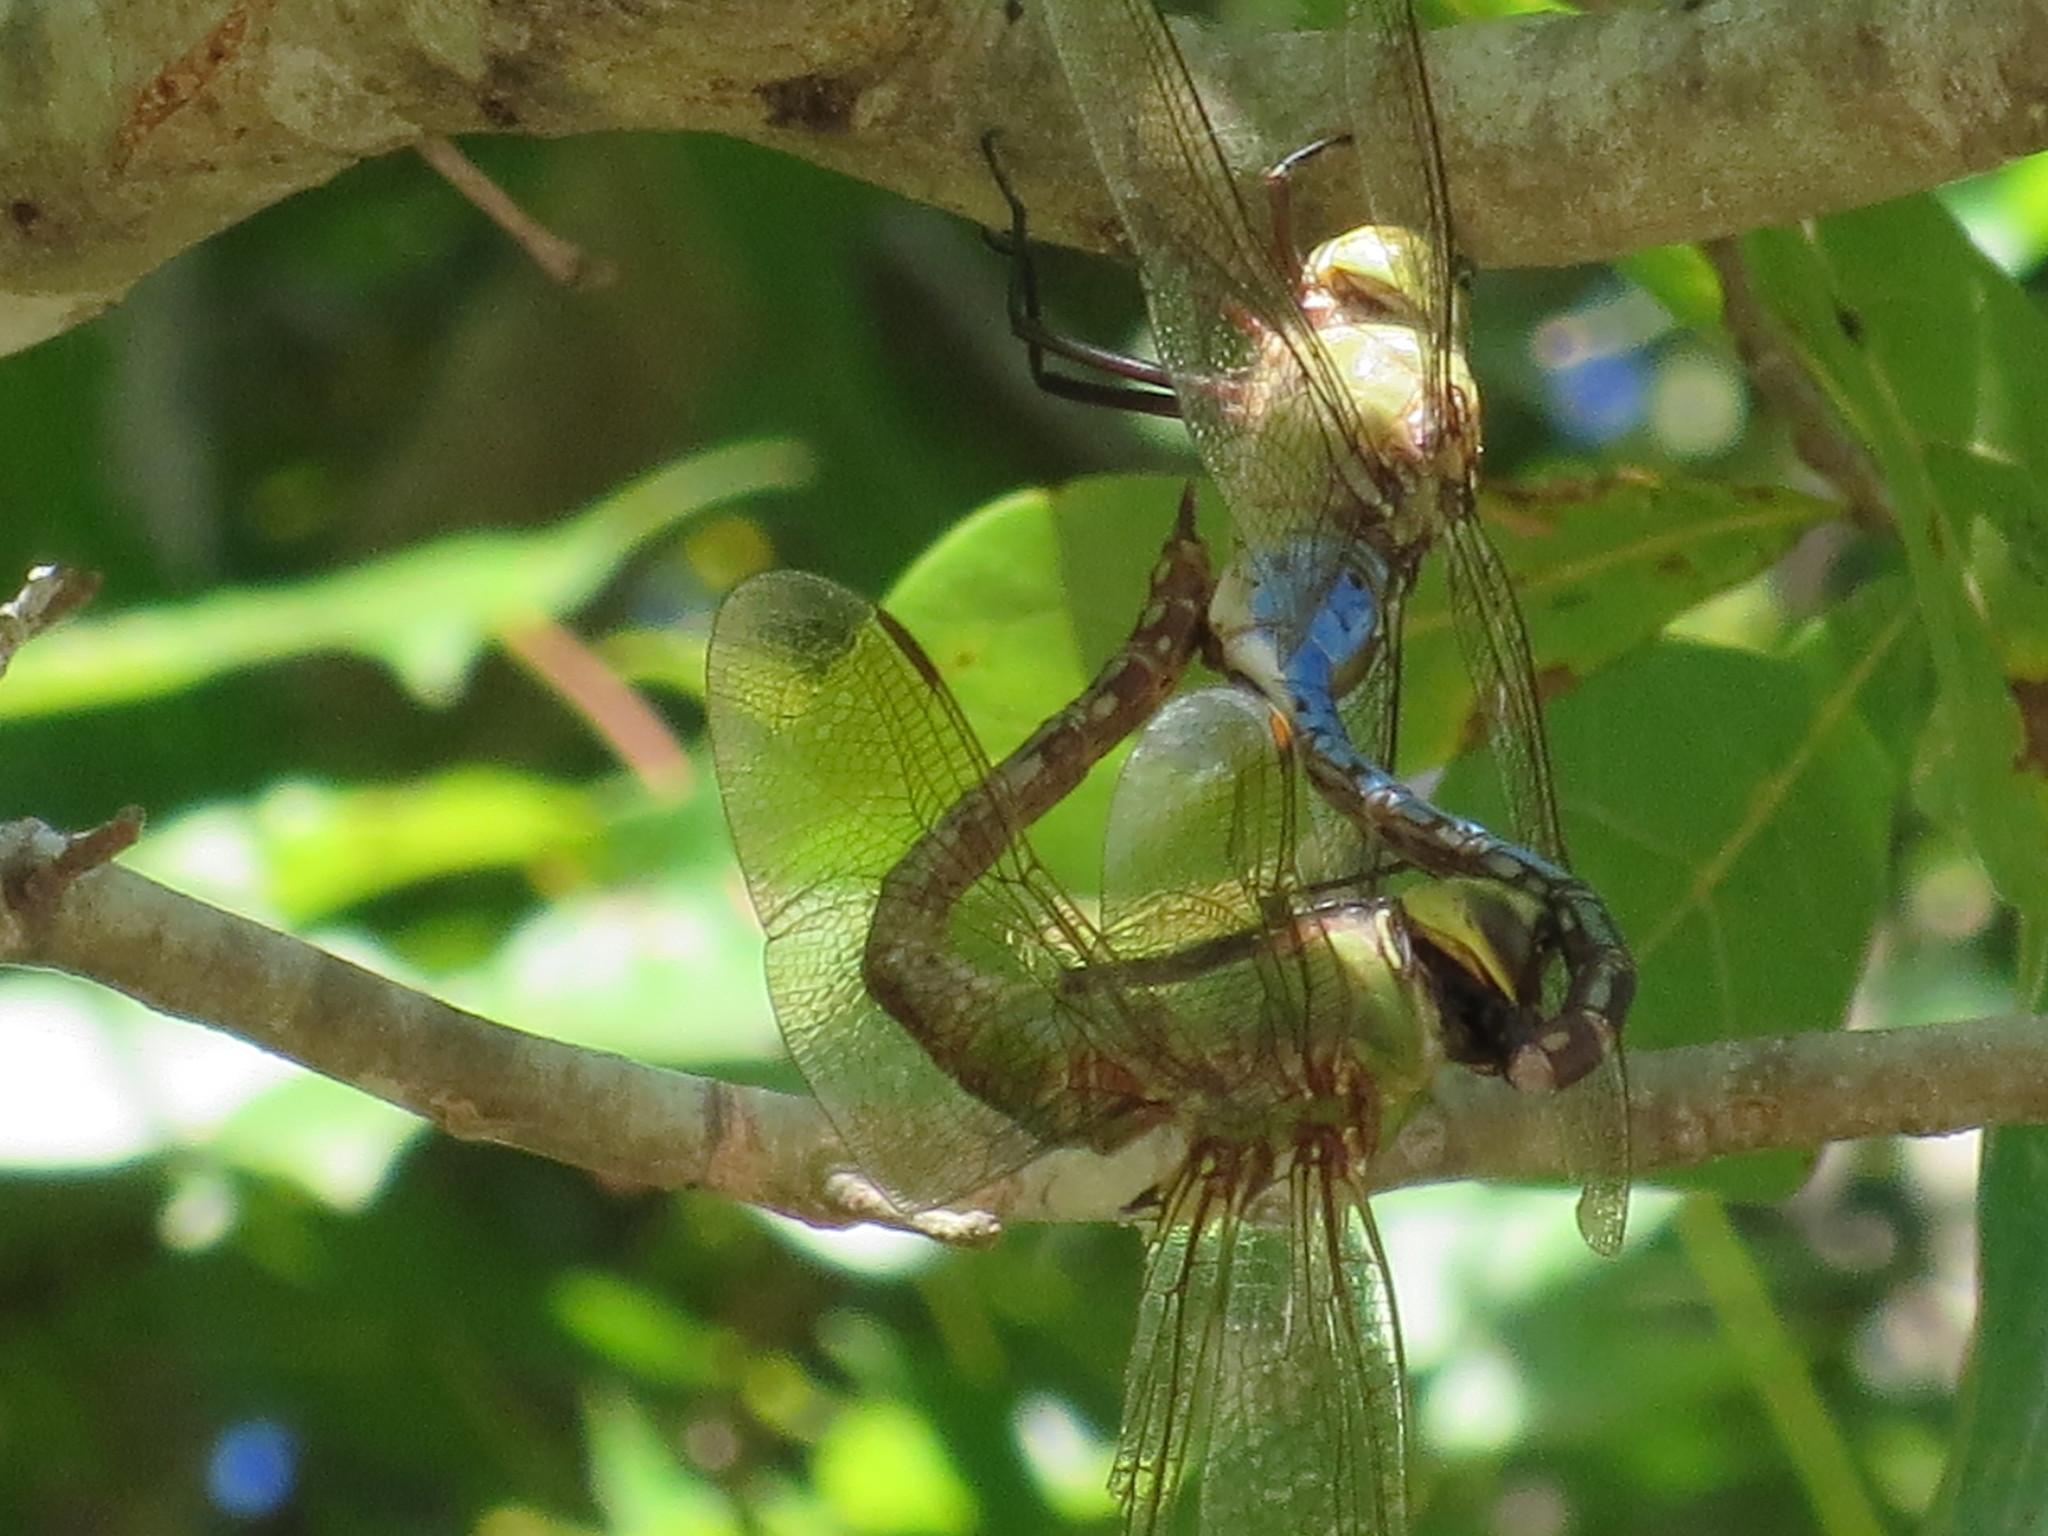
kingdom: Animalia
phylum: Arthropoda
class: Insecta
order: Odonata
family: Aeshnidae
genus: Anax
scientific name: Anax junius
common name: Common green darner
